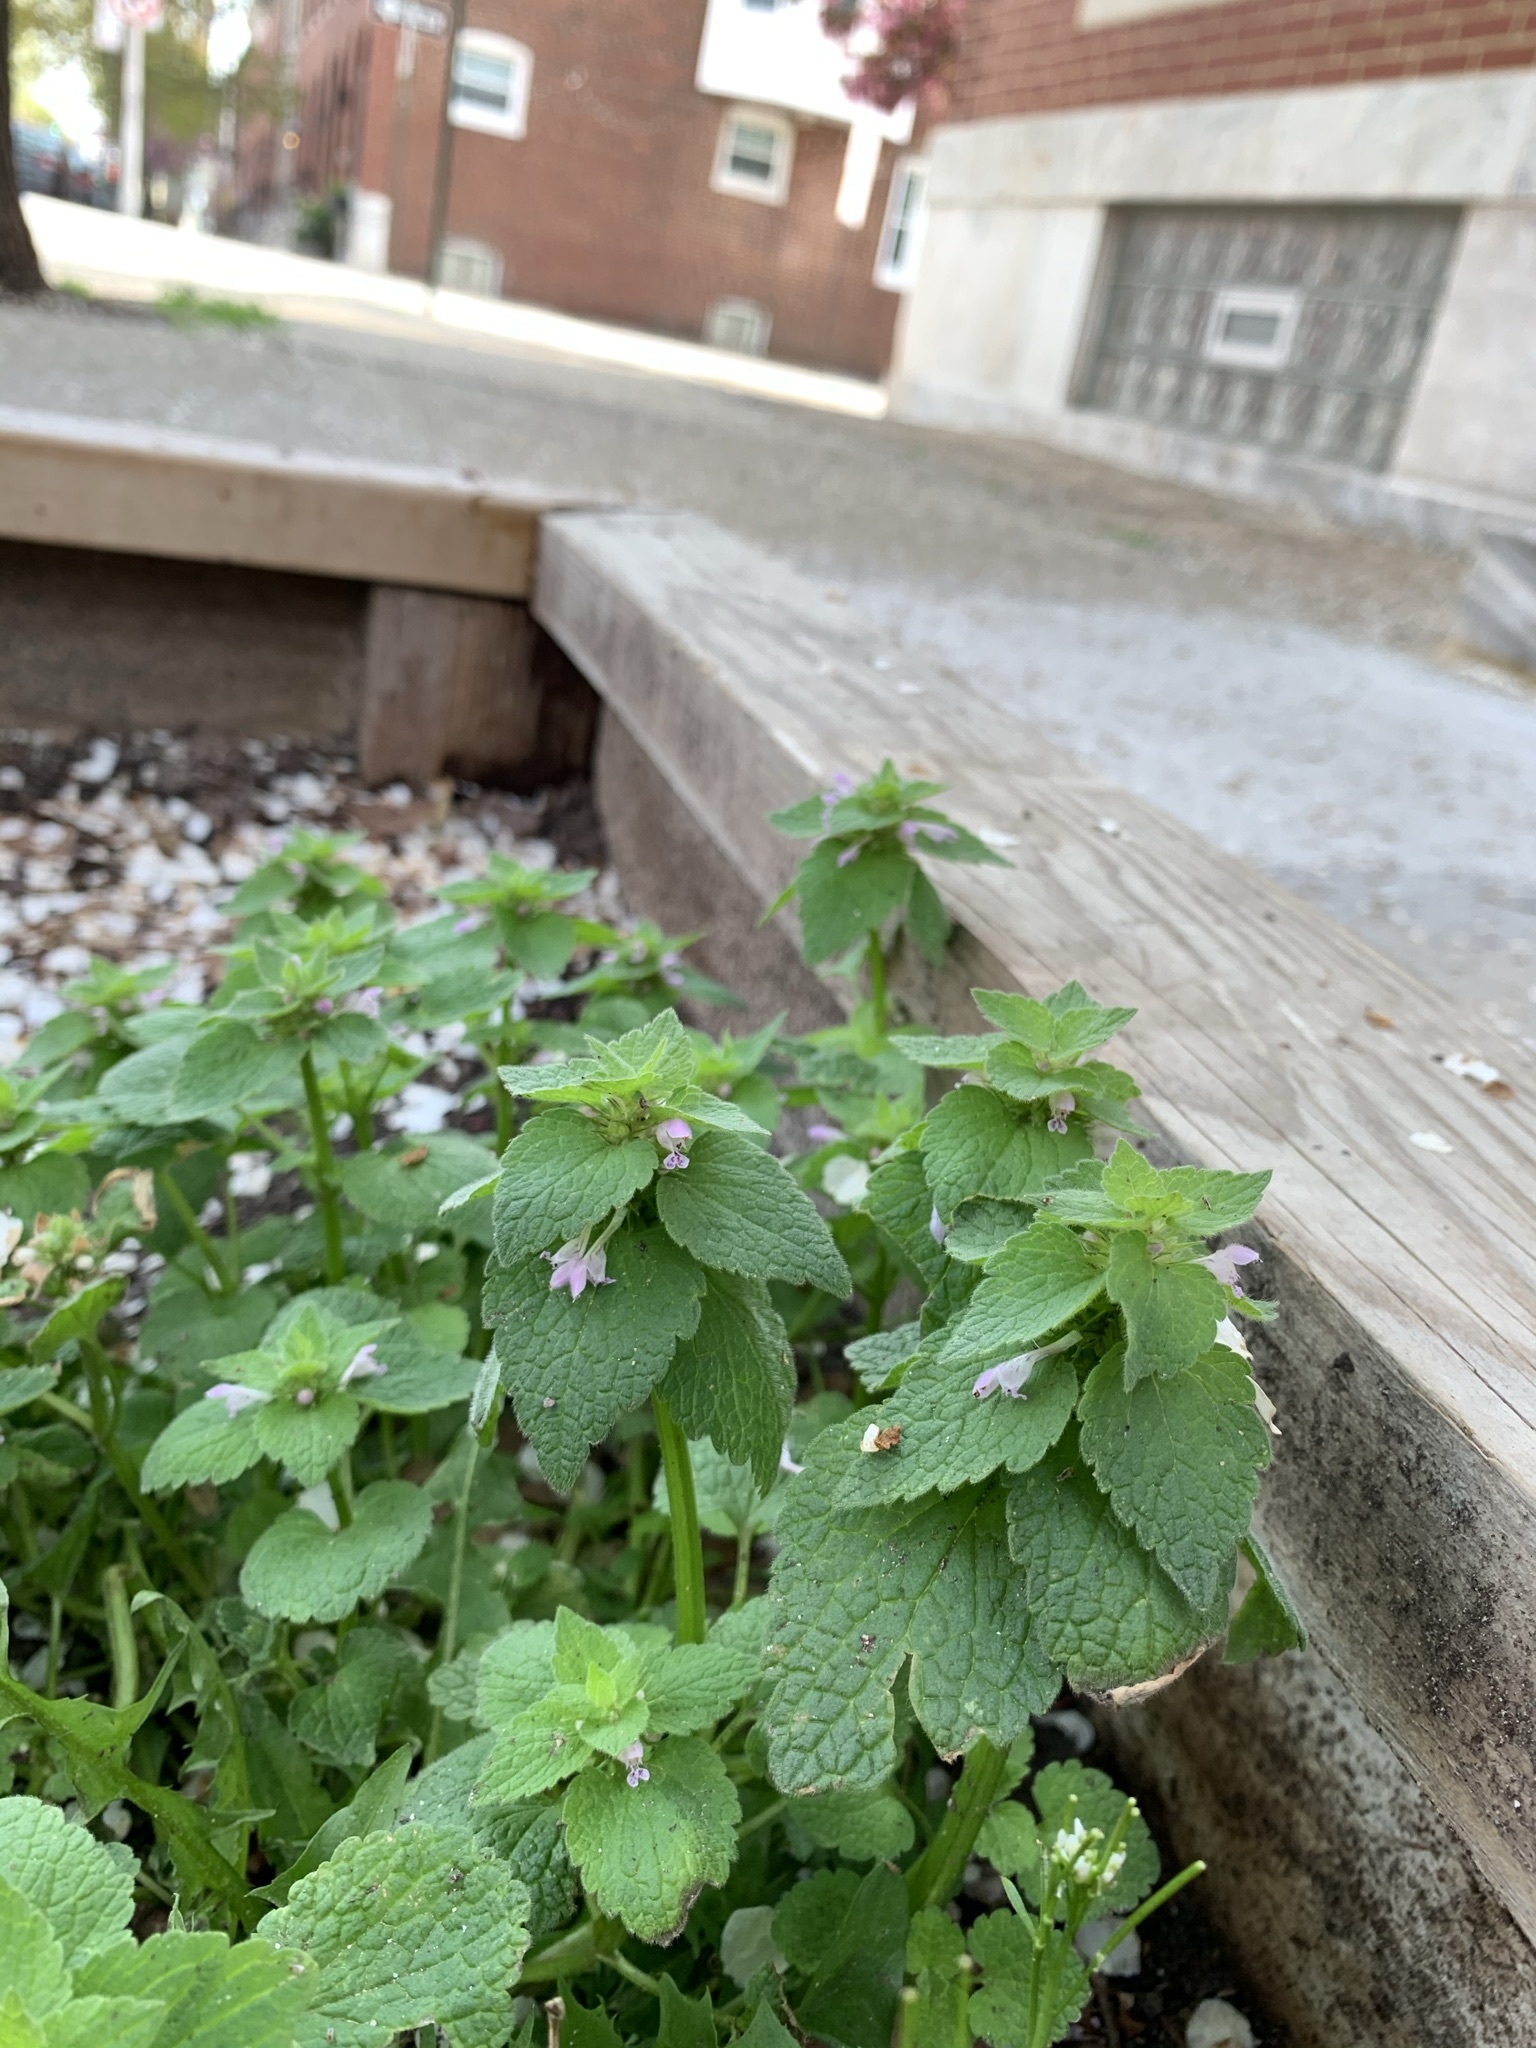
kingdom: Plantae
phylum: Tracheophyta
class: Magnoliopsida
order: Lamiales
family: Lamiaceae
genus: Lamium
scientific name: Lamium purpureum
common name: Red dead-nettle
